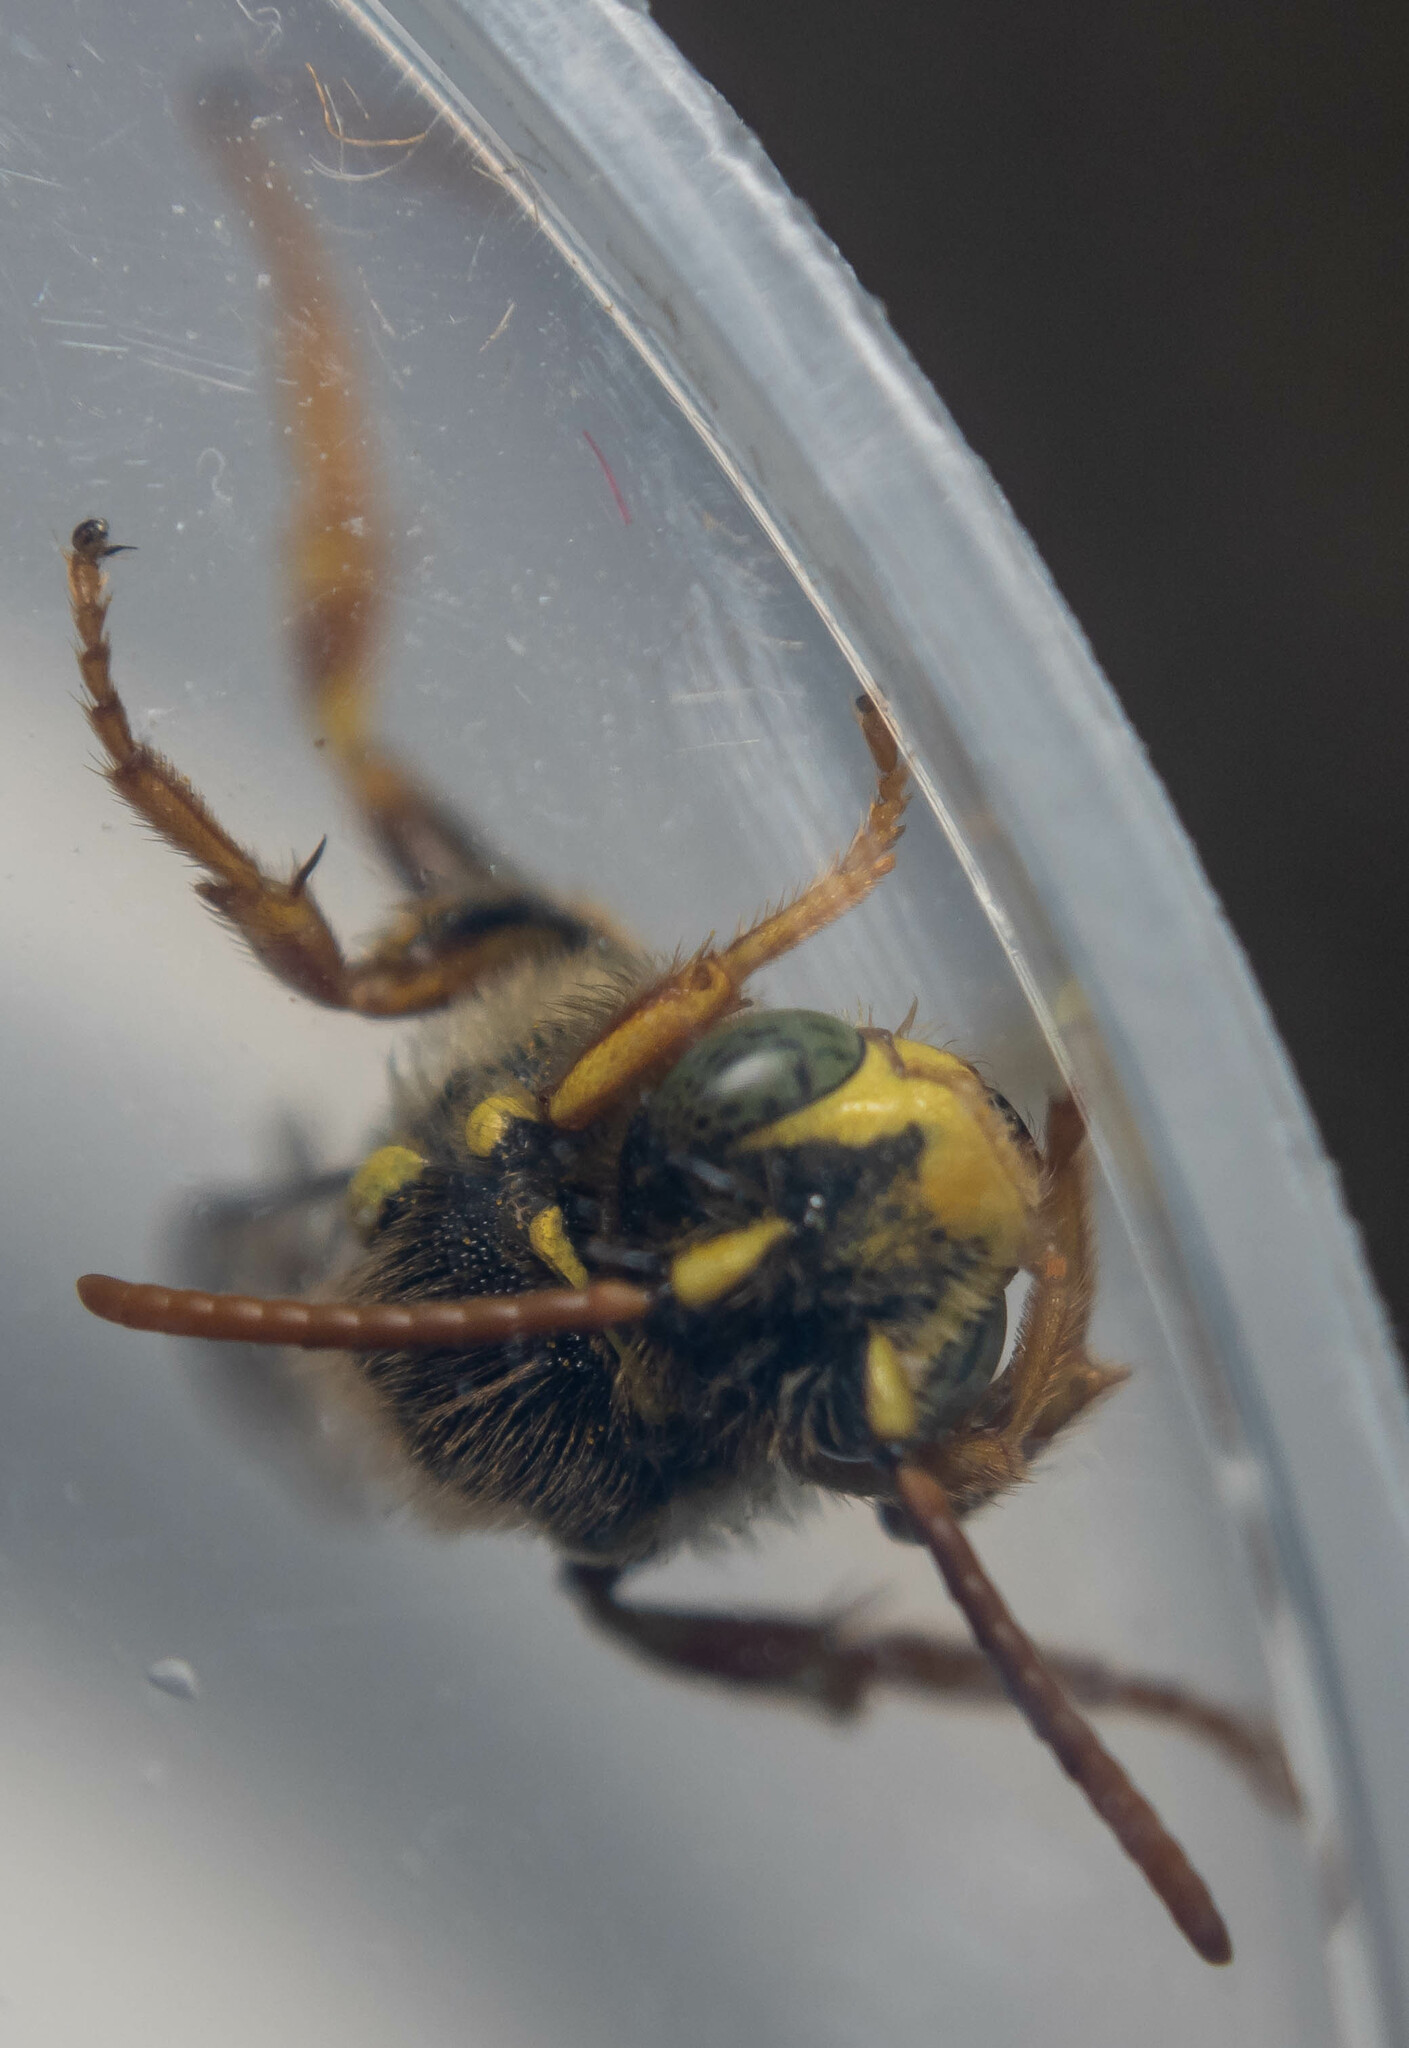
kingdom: Animalia
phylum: Arthropoda
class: Insecta
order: Hymenoptera
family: Apidae
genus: Nomada
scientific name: Nomada goodeniana
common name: Gooden's nomad bee
